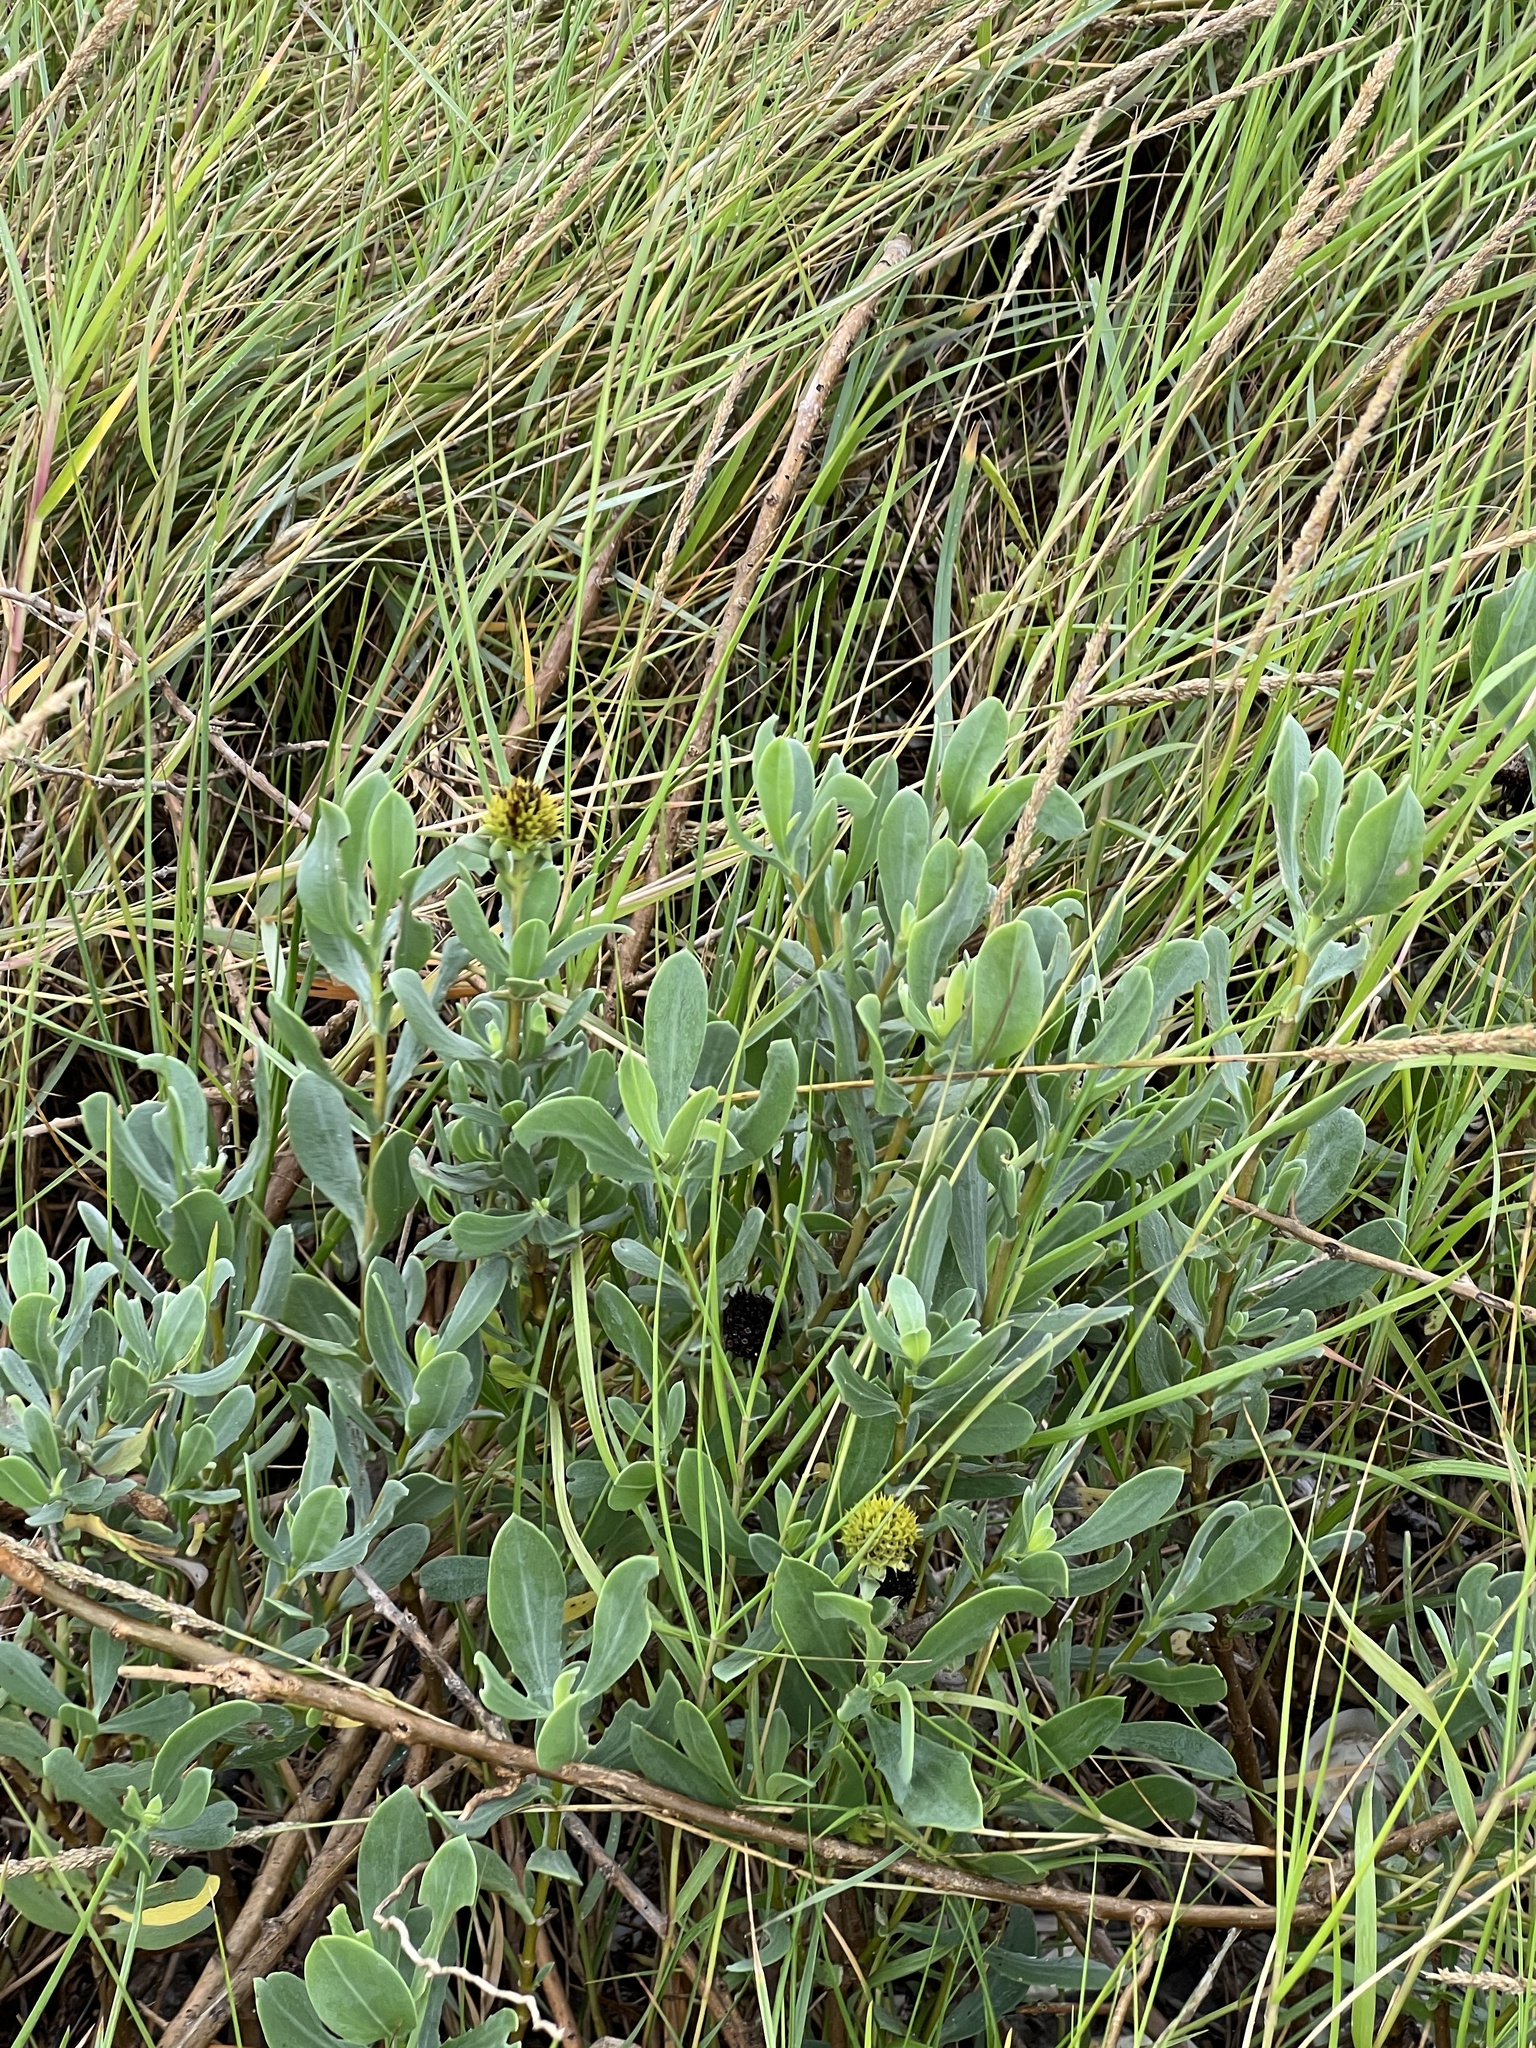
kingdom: Plantae
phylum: Tracheophyta
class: Magnoliopsida
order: Asterales
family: Asteraceae
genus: Borrichia
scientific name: Borrichia frutescens
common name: Sea oxeye
